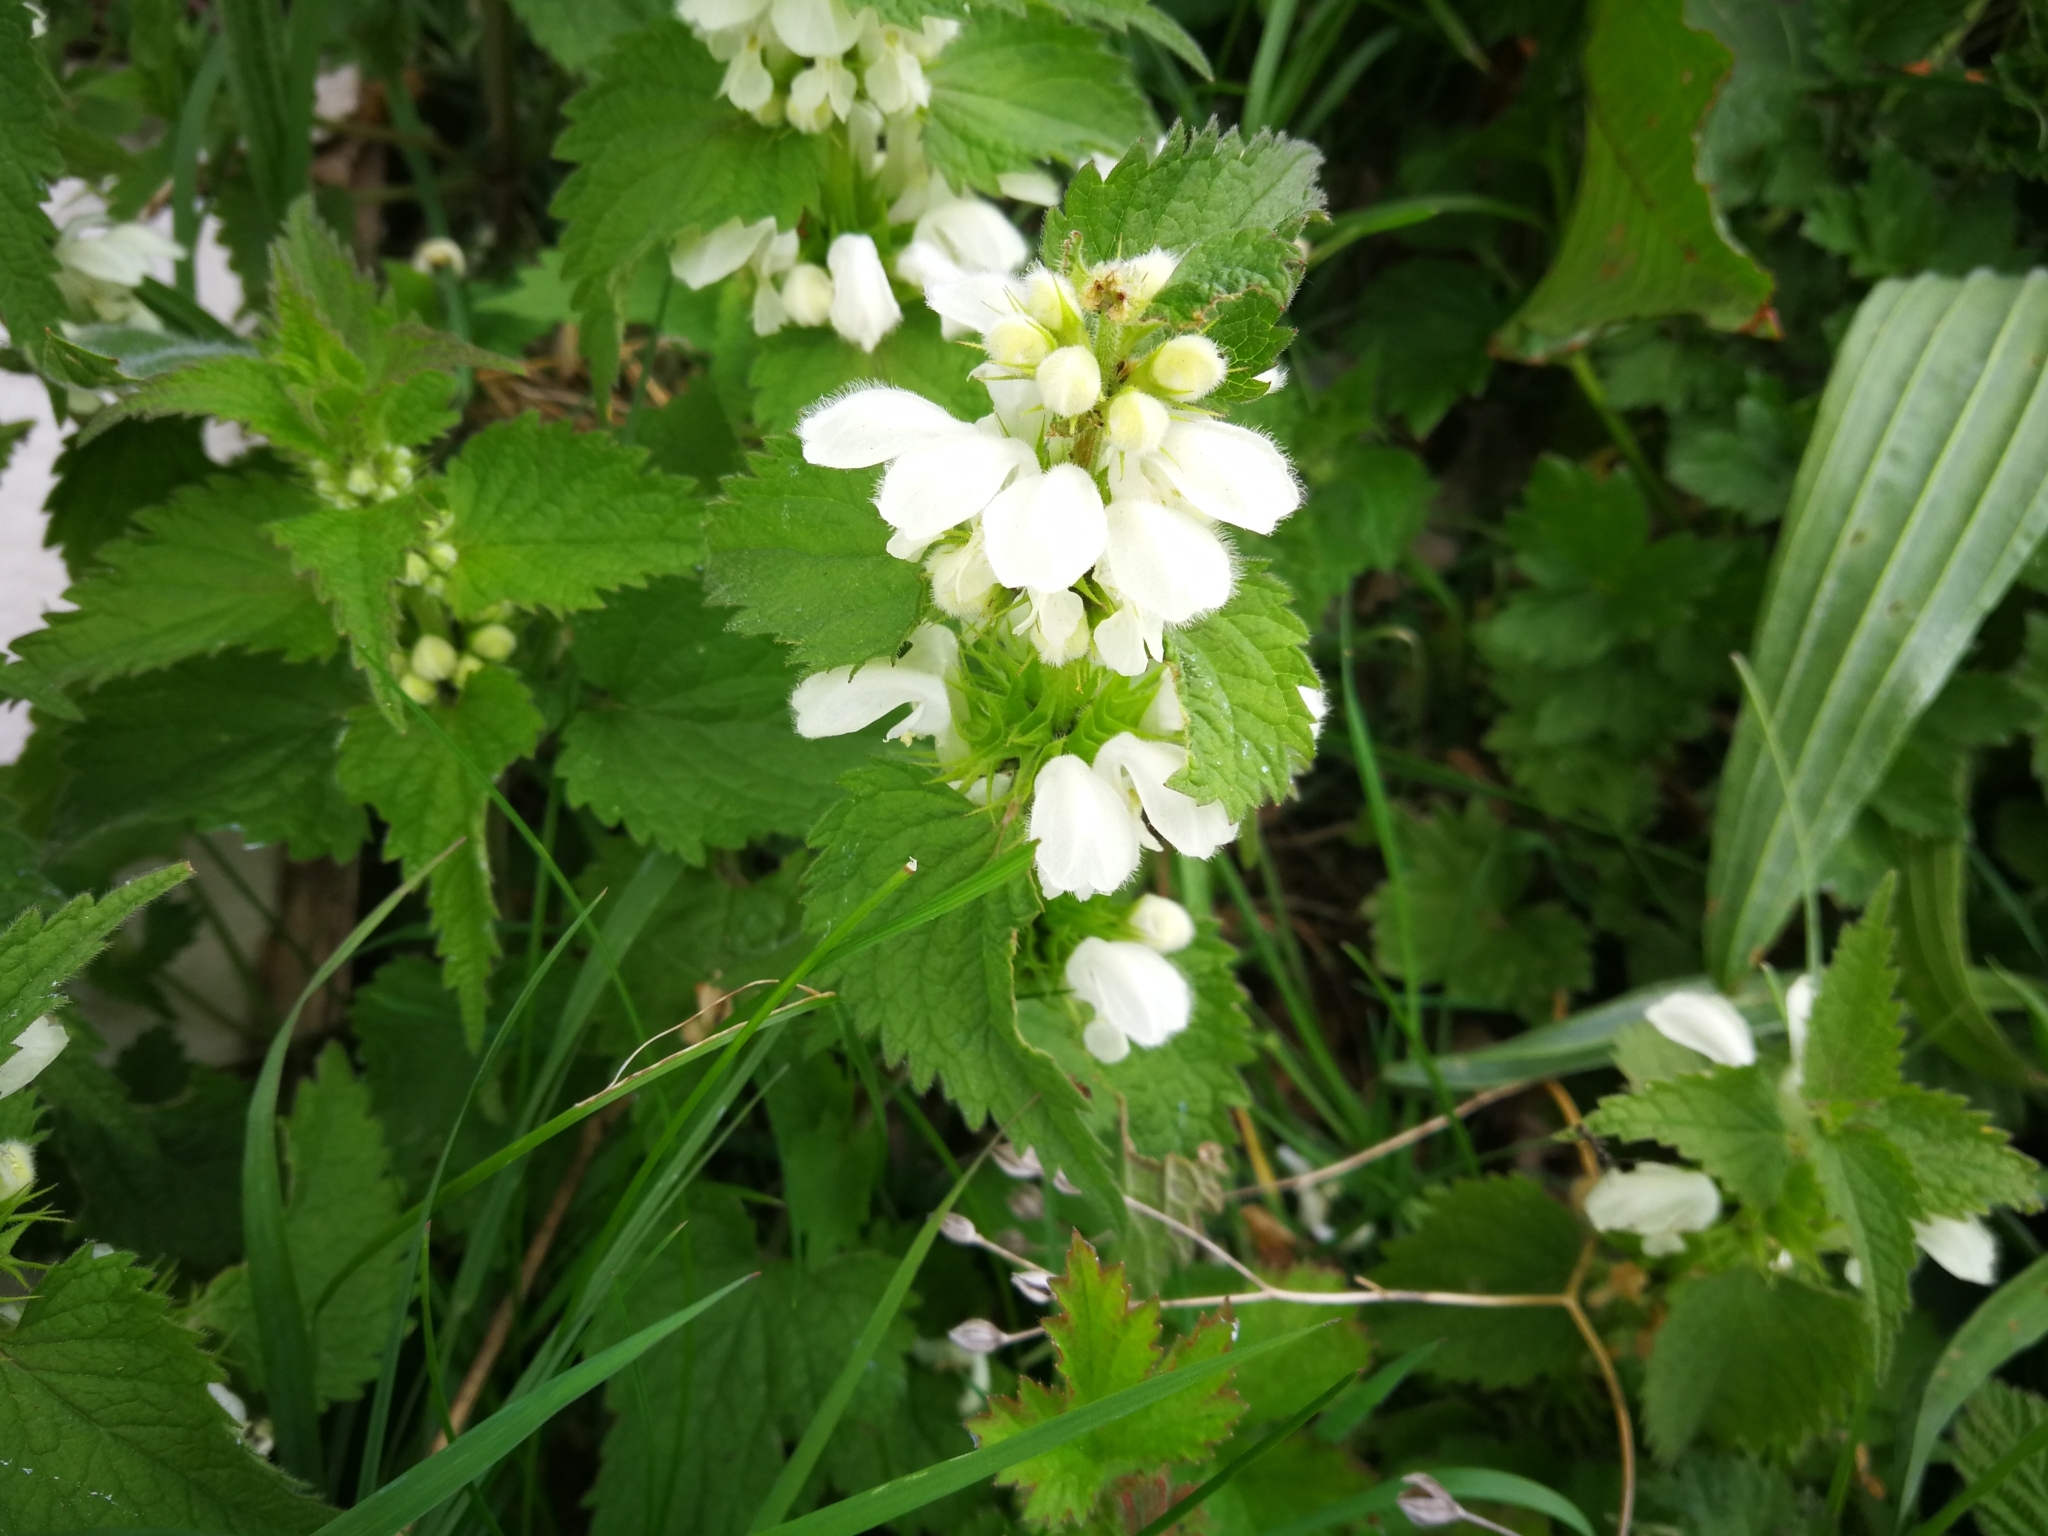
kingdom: Plantae
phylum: Tracheophyta
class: Magnoliopsida
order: Lamiales
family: Lamiaceae
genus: Lamium
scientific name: Lamium album
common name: White dead-nettle
